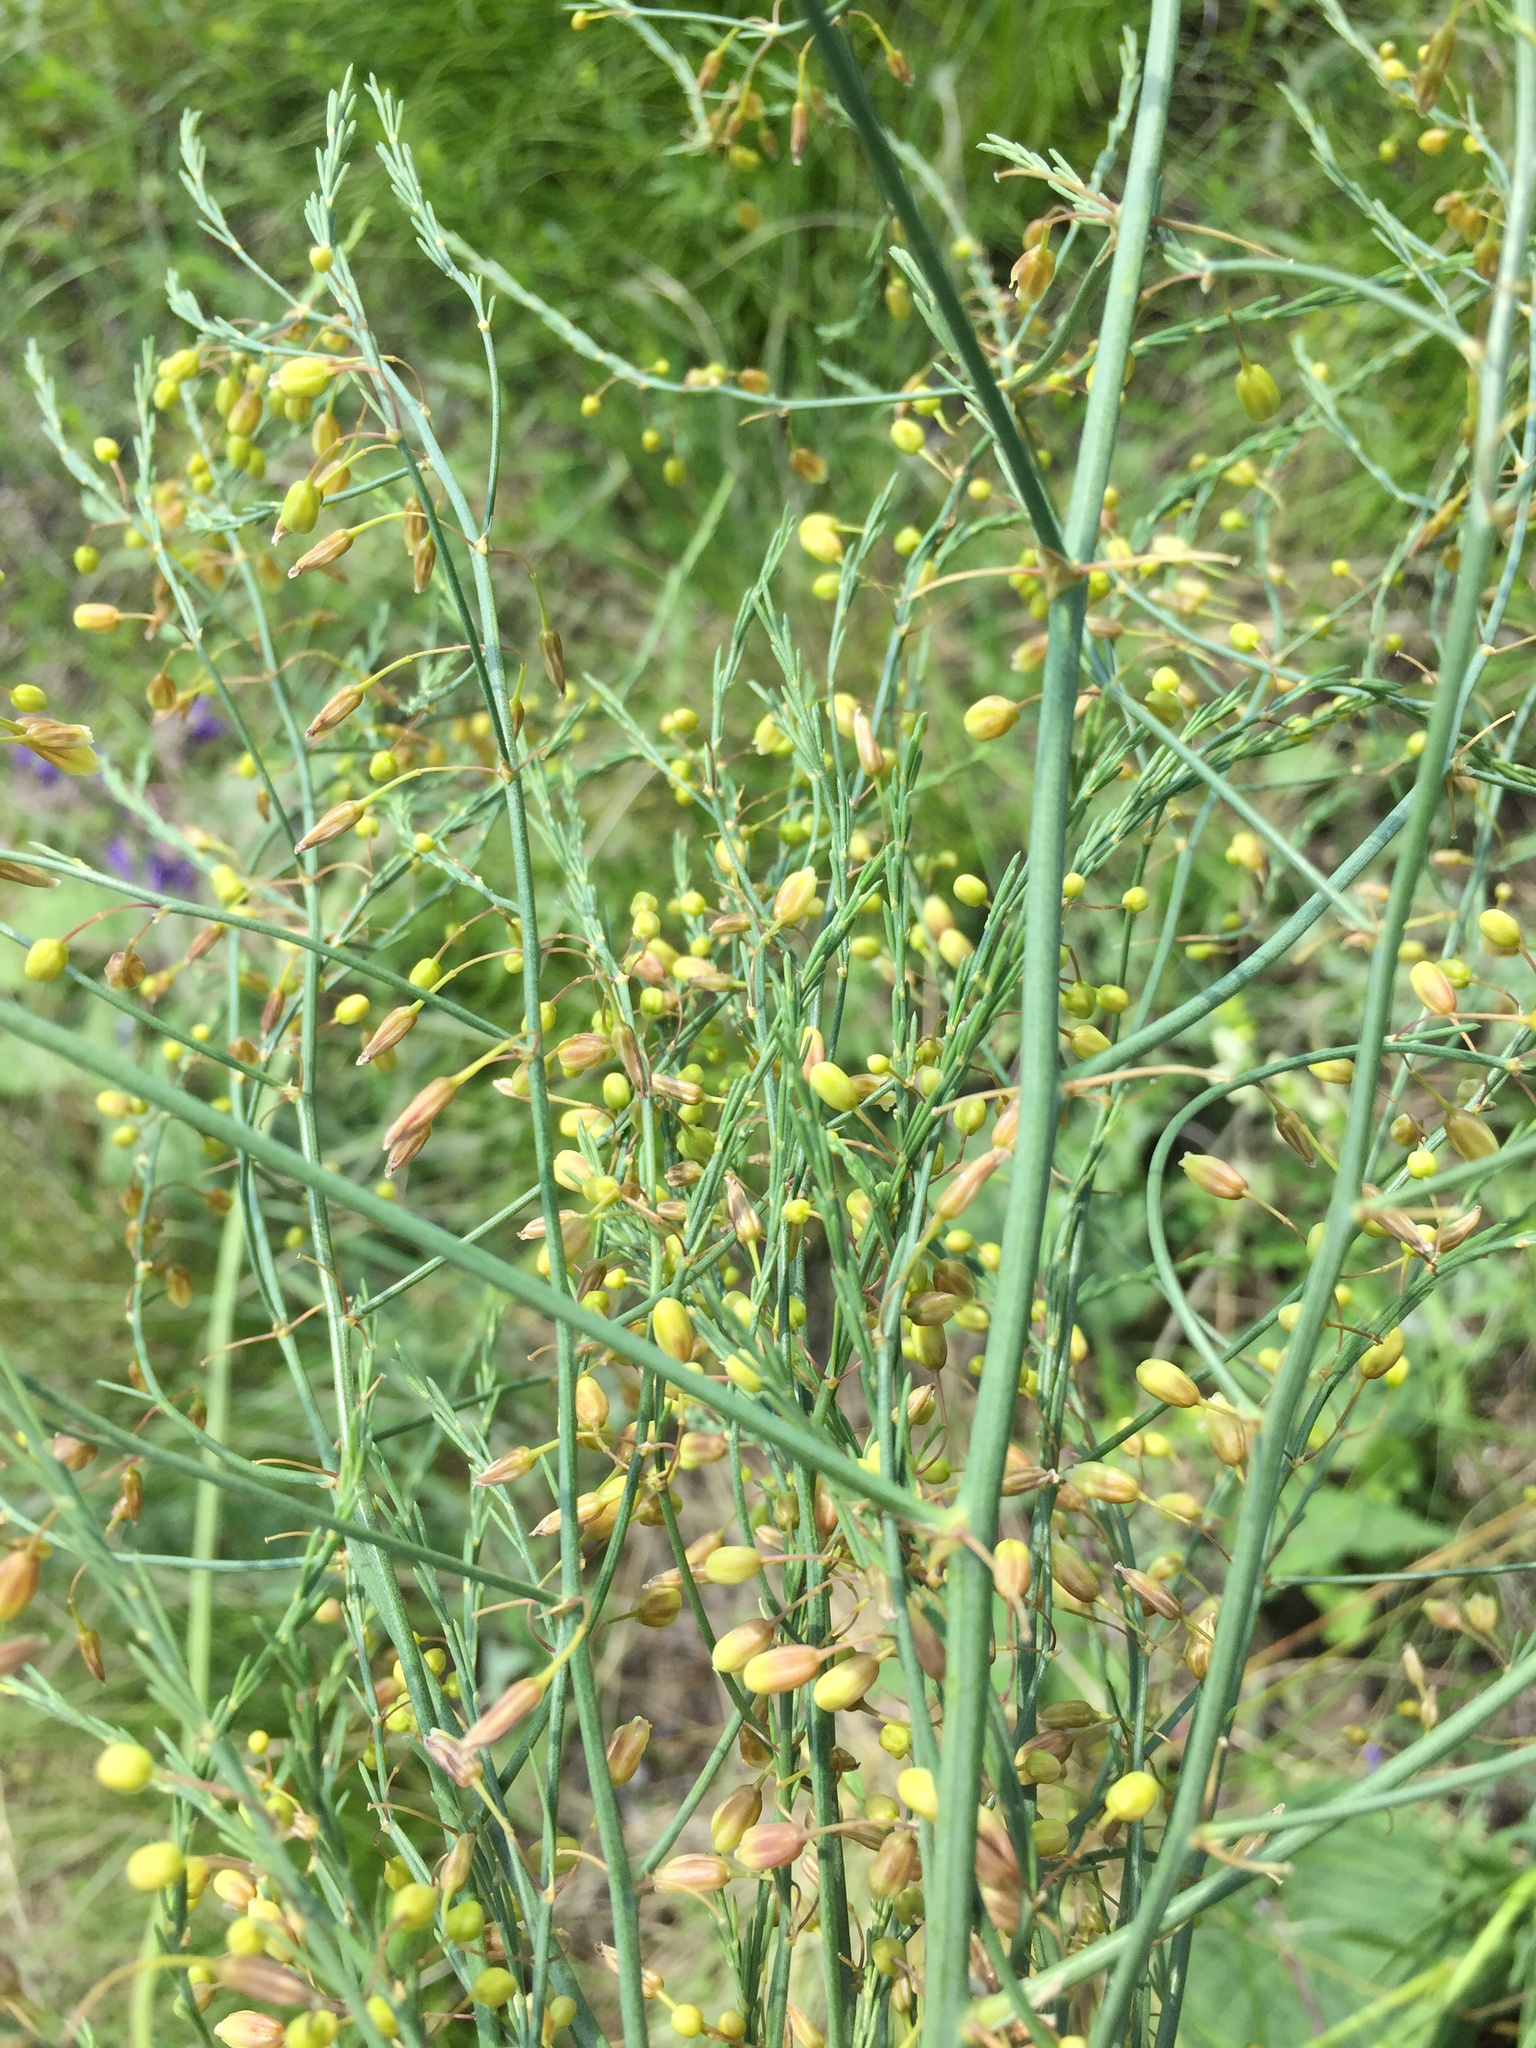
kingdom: Plantae
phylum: Tracheophyta
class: Liliopsida
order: Asparagales
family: Asparagaceae
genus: Asparagus
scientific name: Asparagus officinalis
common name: Garden asparagus
